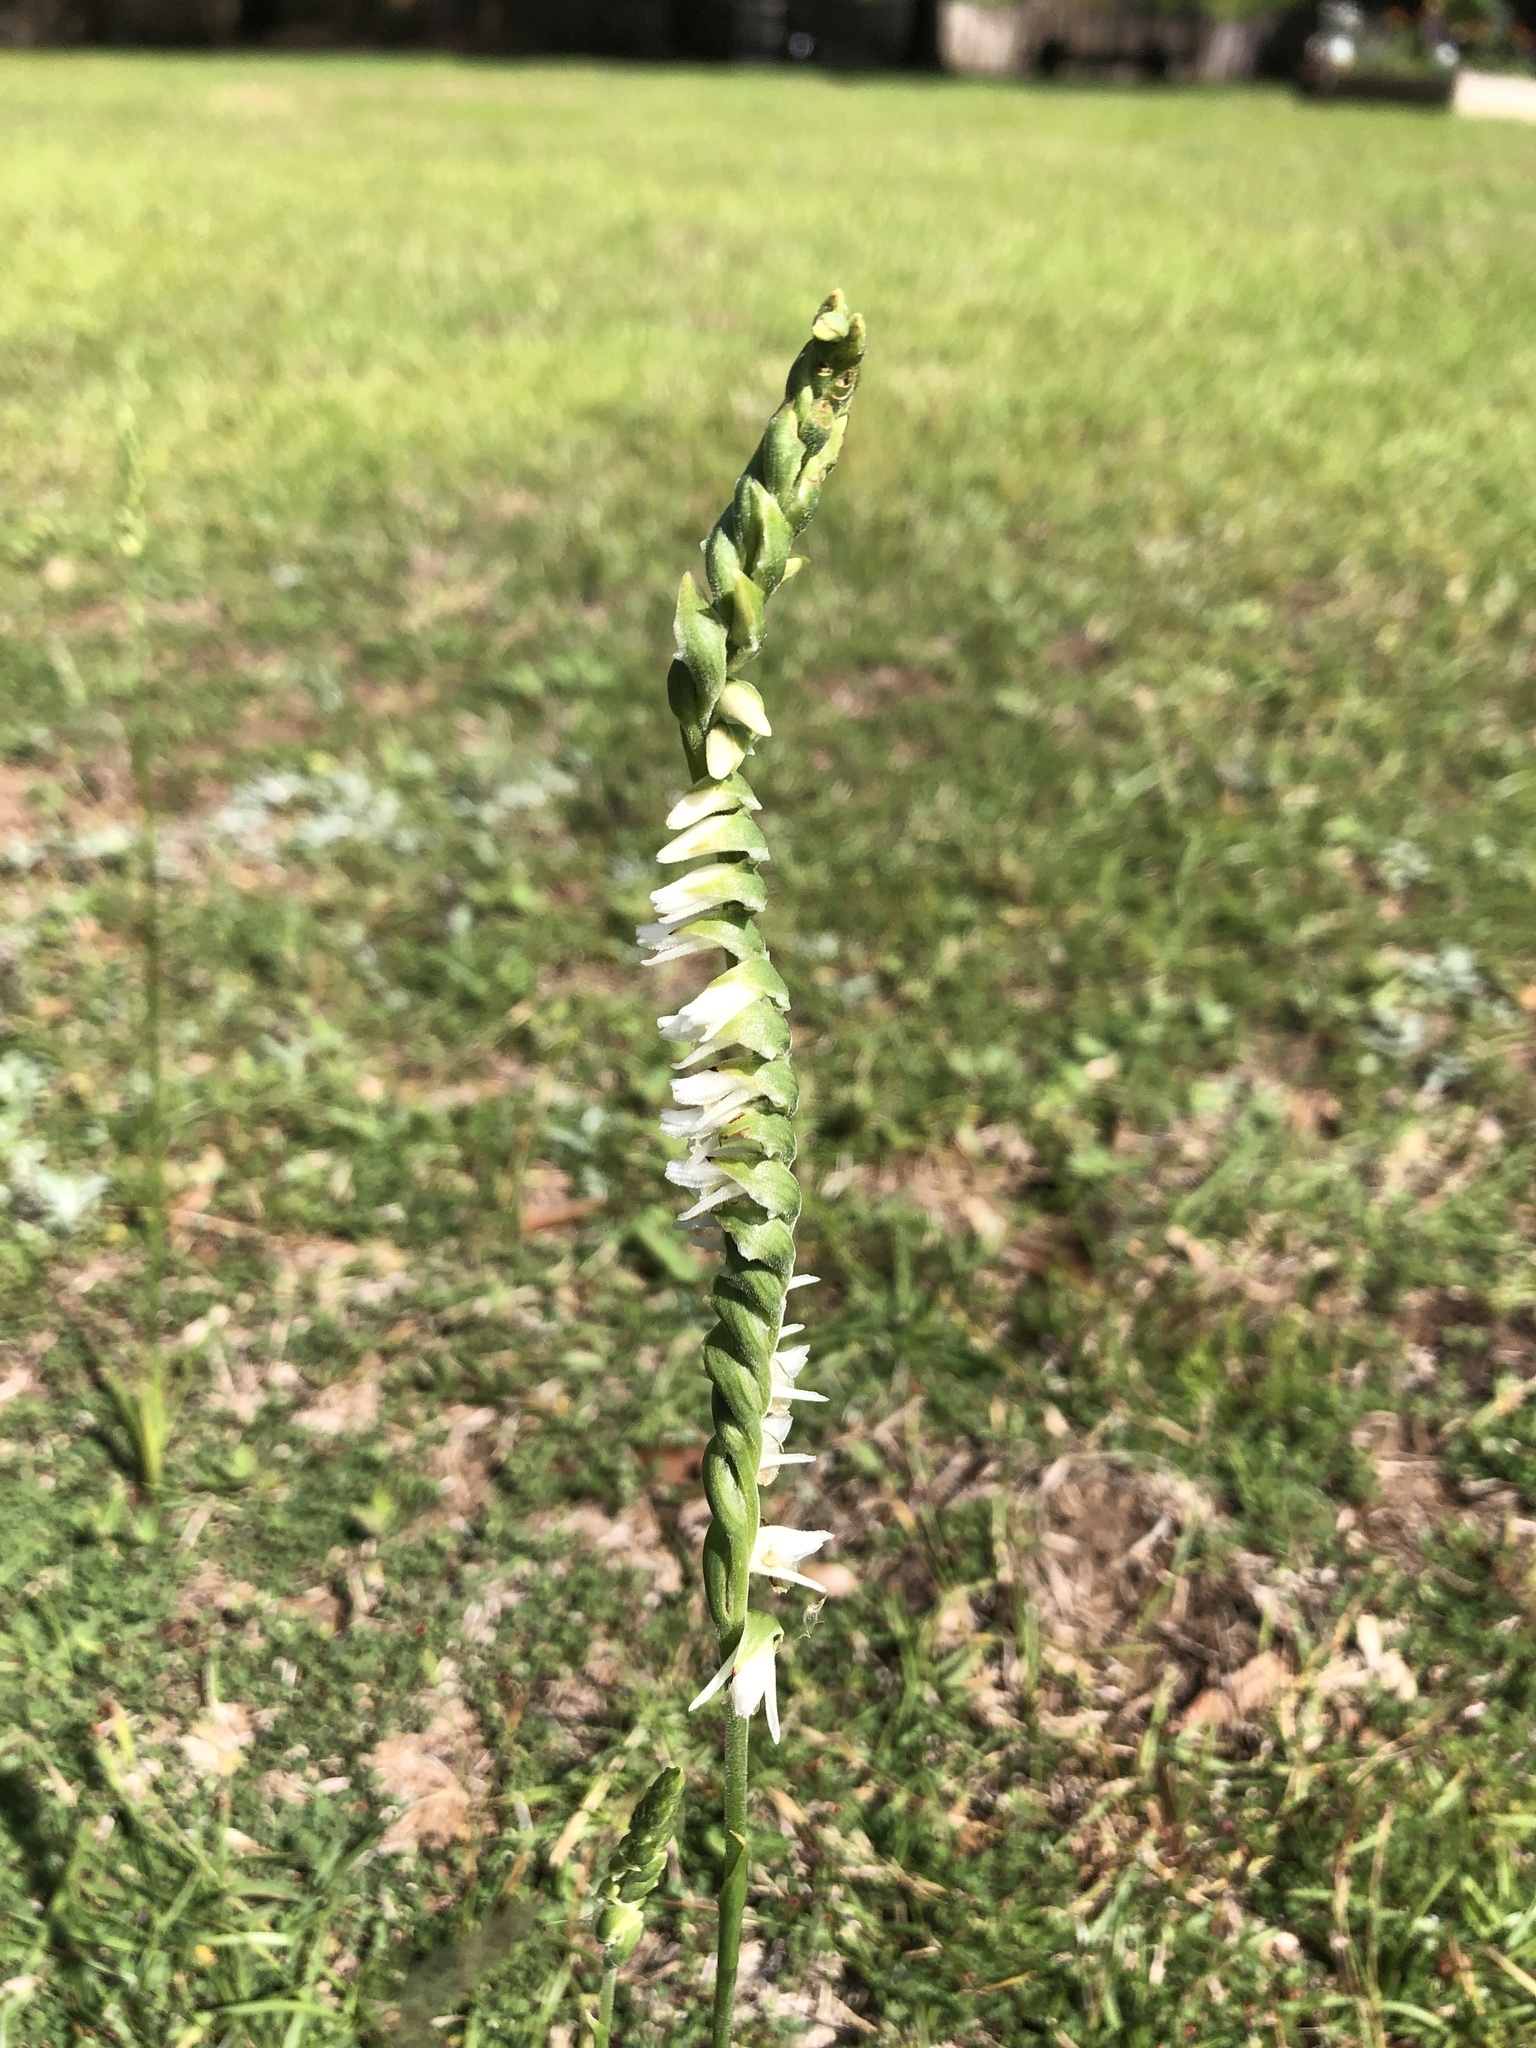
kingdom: Plantae
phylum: Tracheophyta
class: Liliopsida
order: Asparagales
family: Orchidaceae
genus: Spiranthes
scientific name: Spiranthes vernalis
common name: Spring ladies'-tresses
